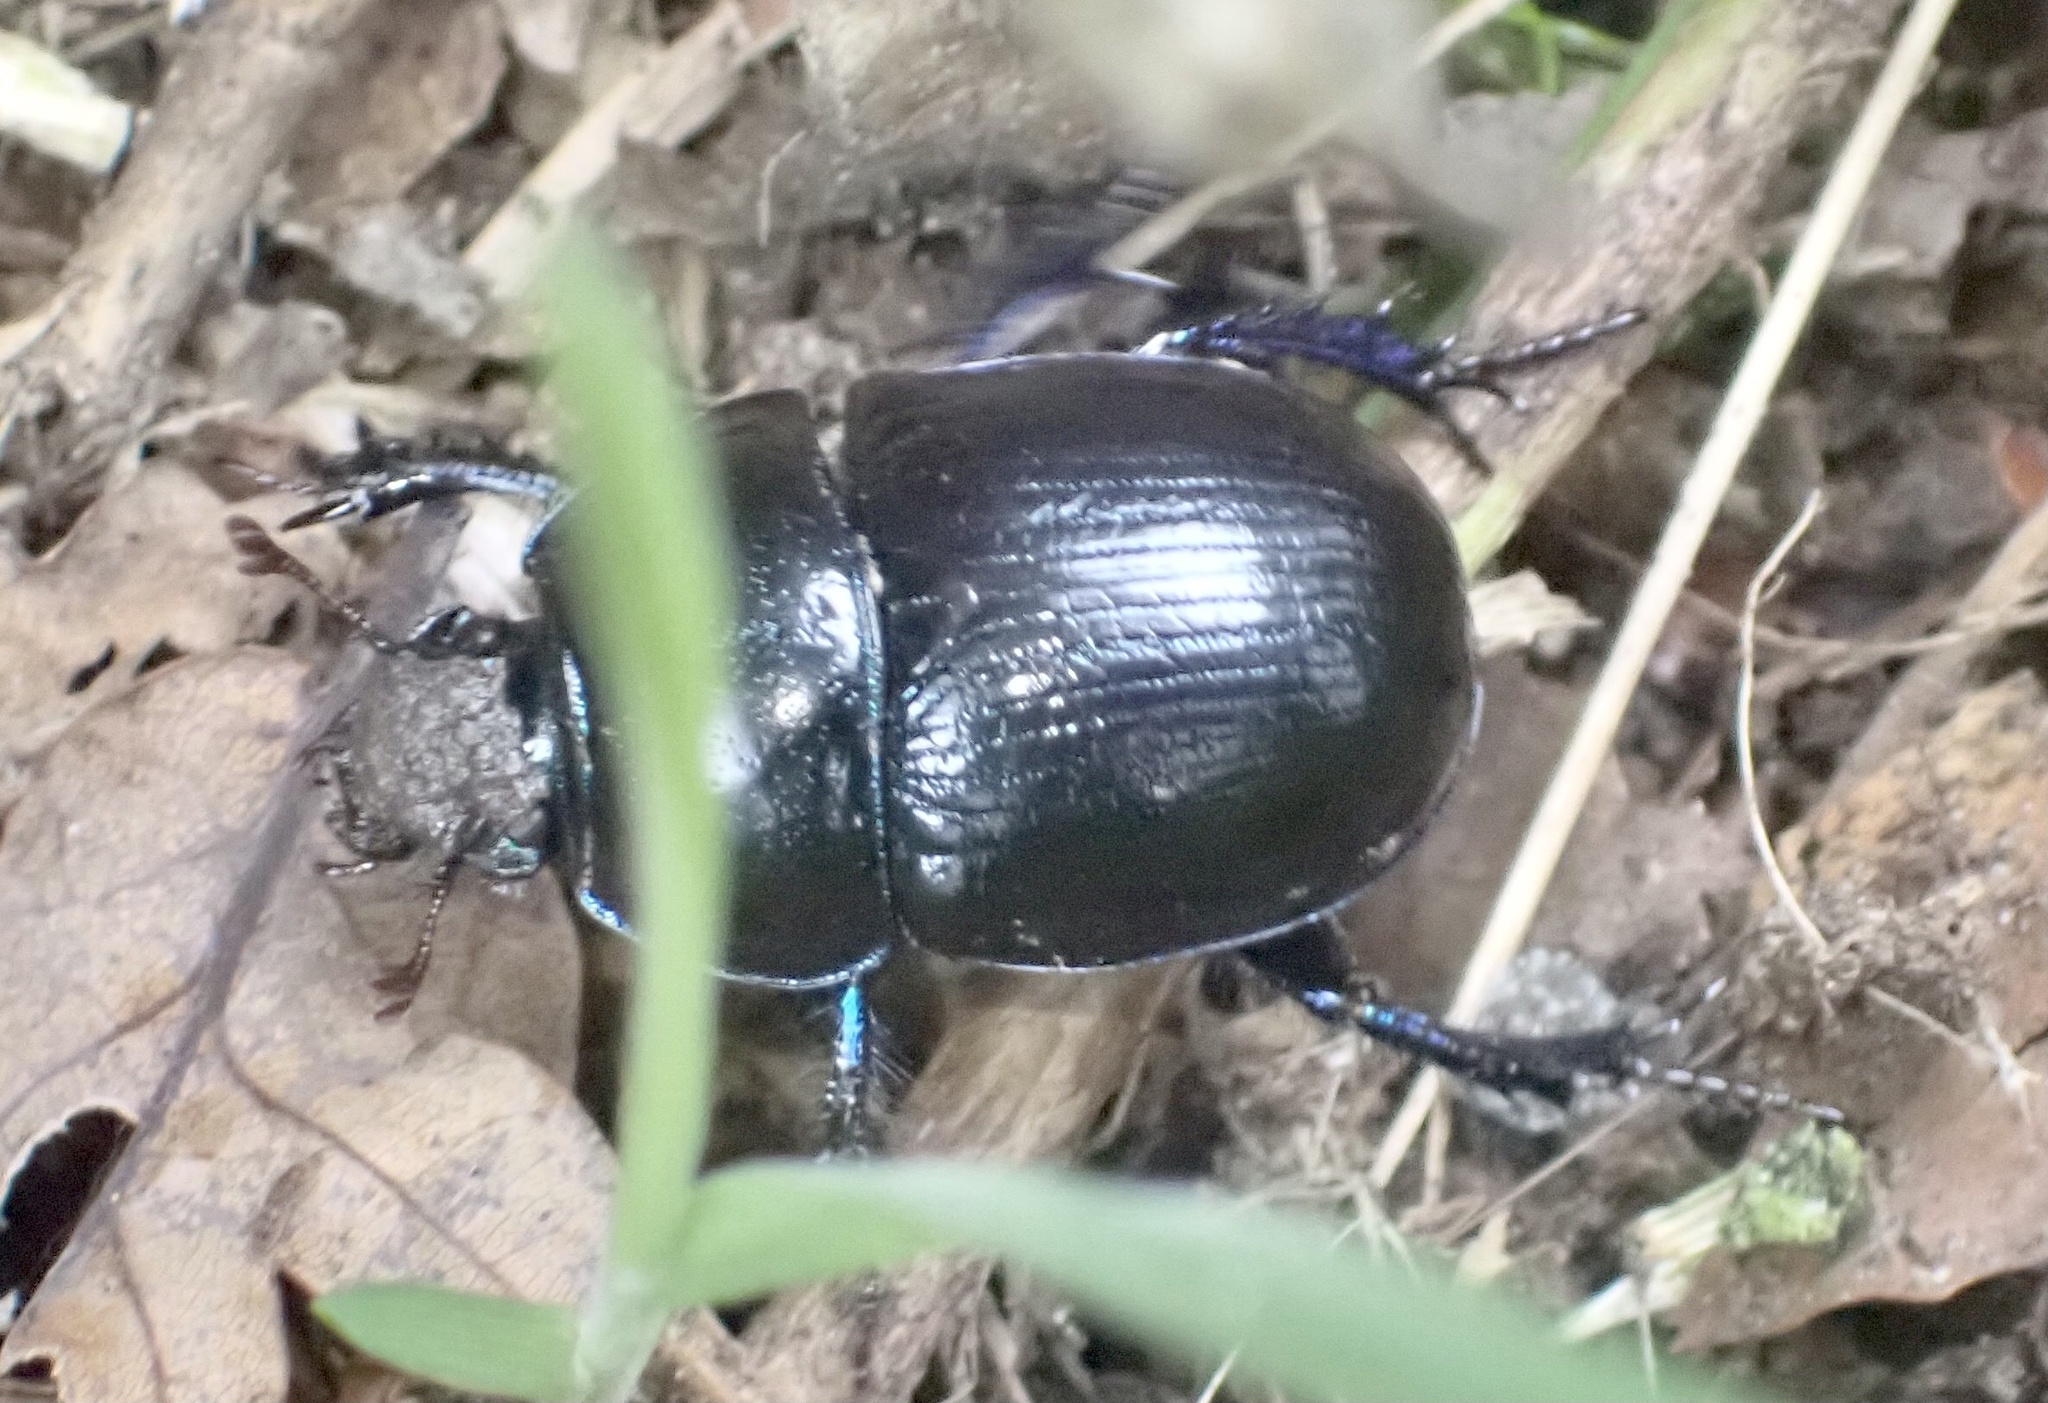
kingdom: Animalia
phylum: Arthropoda
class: Insecta
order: Coleoptera
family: Geotrupidae
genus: Anoplotrupes
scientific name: Anoplotrupes stercorosus
